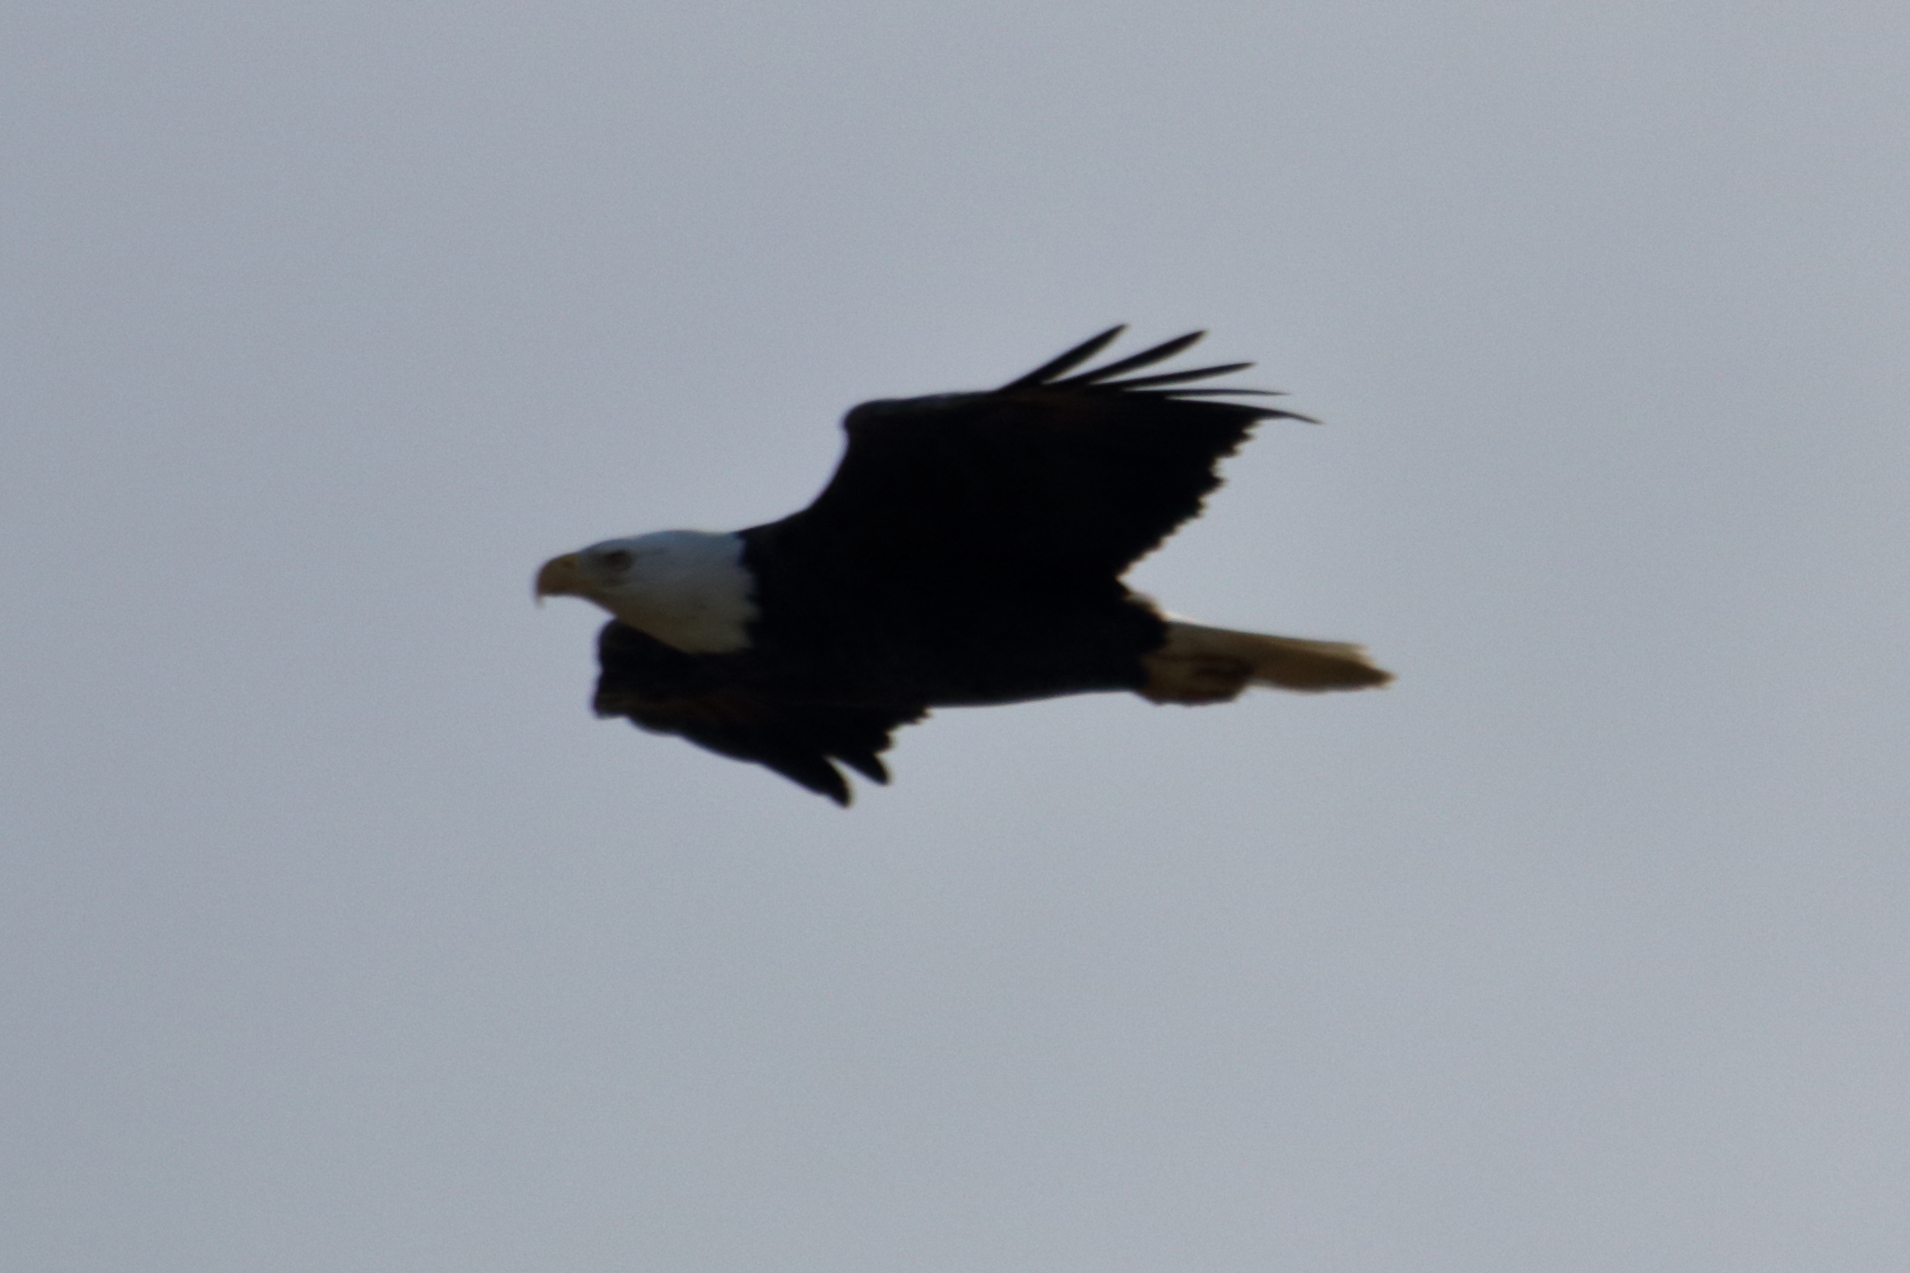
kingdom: Animalia
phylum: Chordata
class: Aves
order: Accipitriformes
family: Accipitridae
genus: Haliaeetus
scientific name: Haliaeetus leucocephalus
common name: Bald eagle
